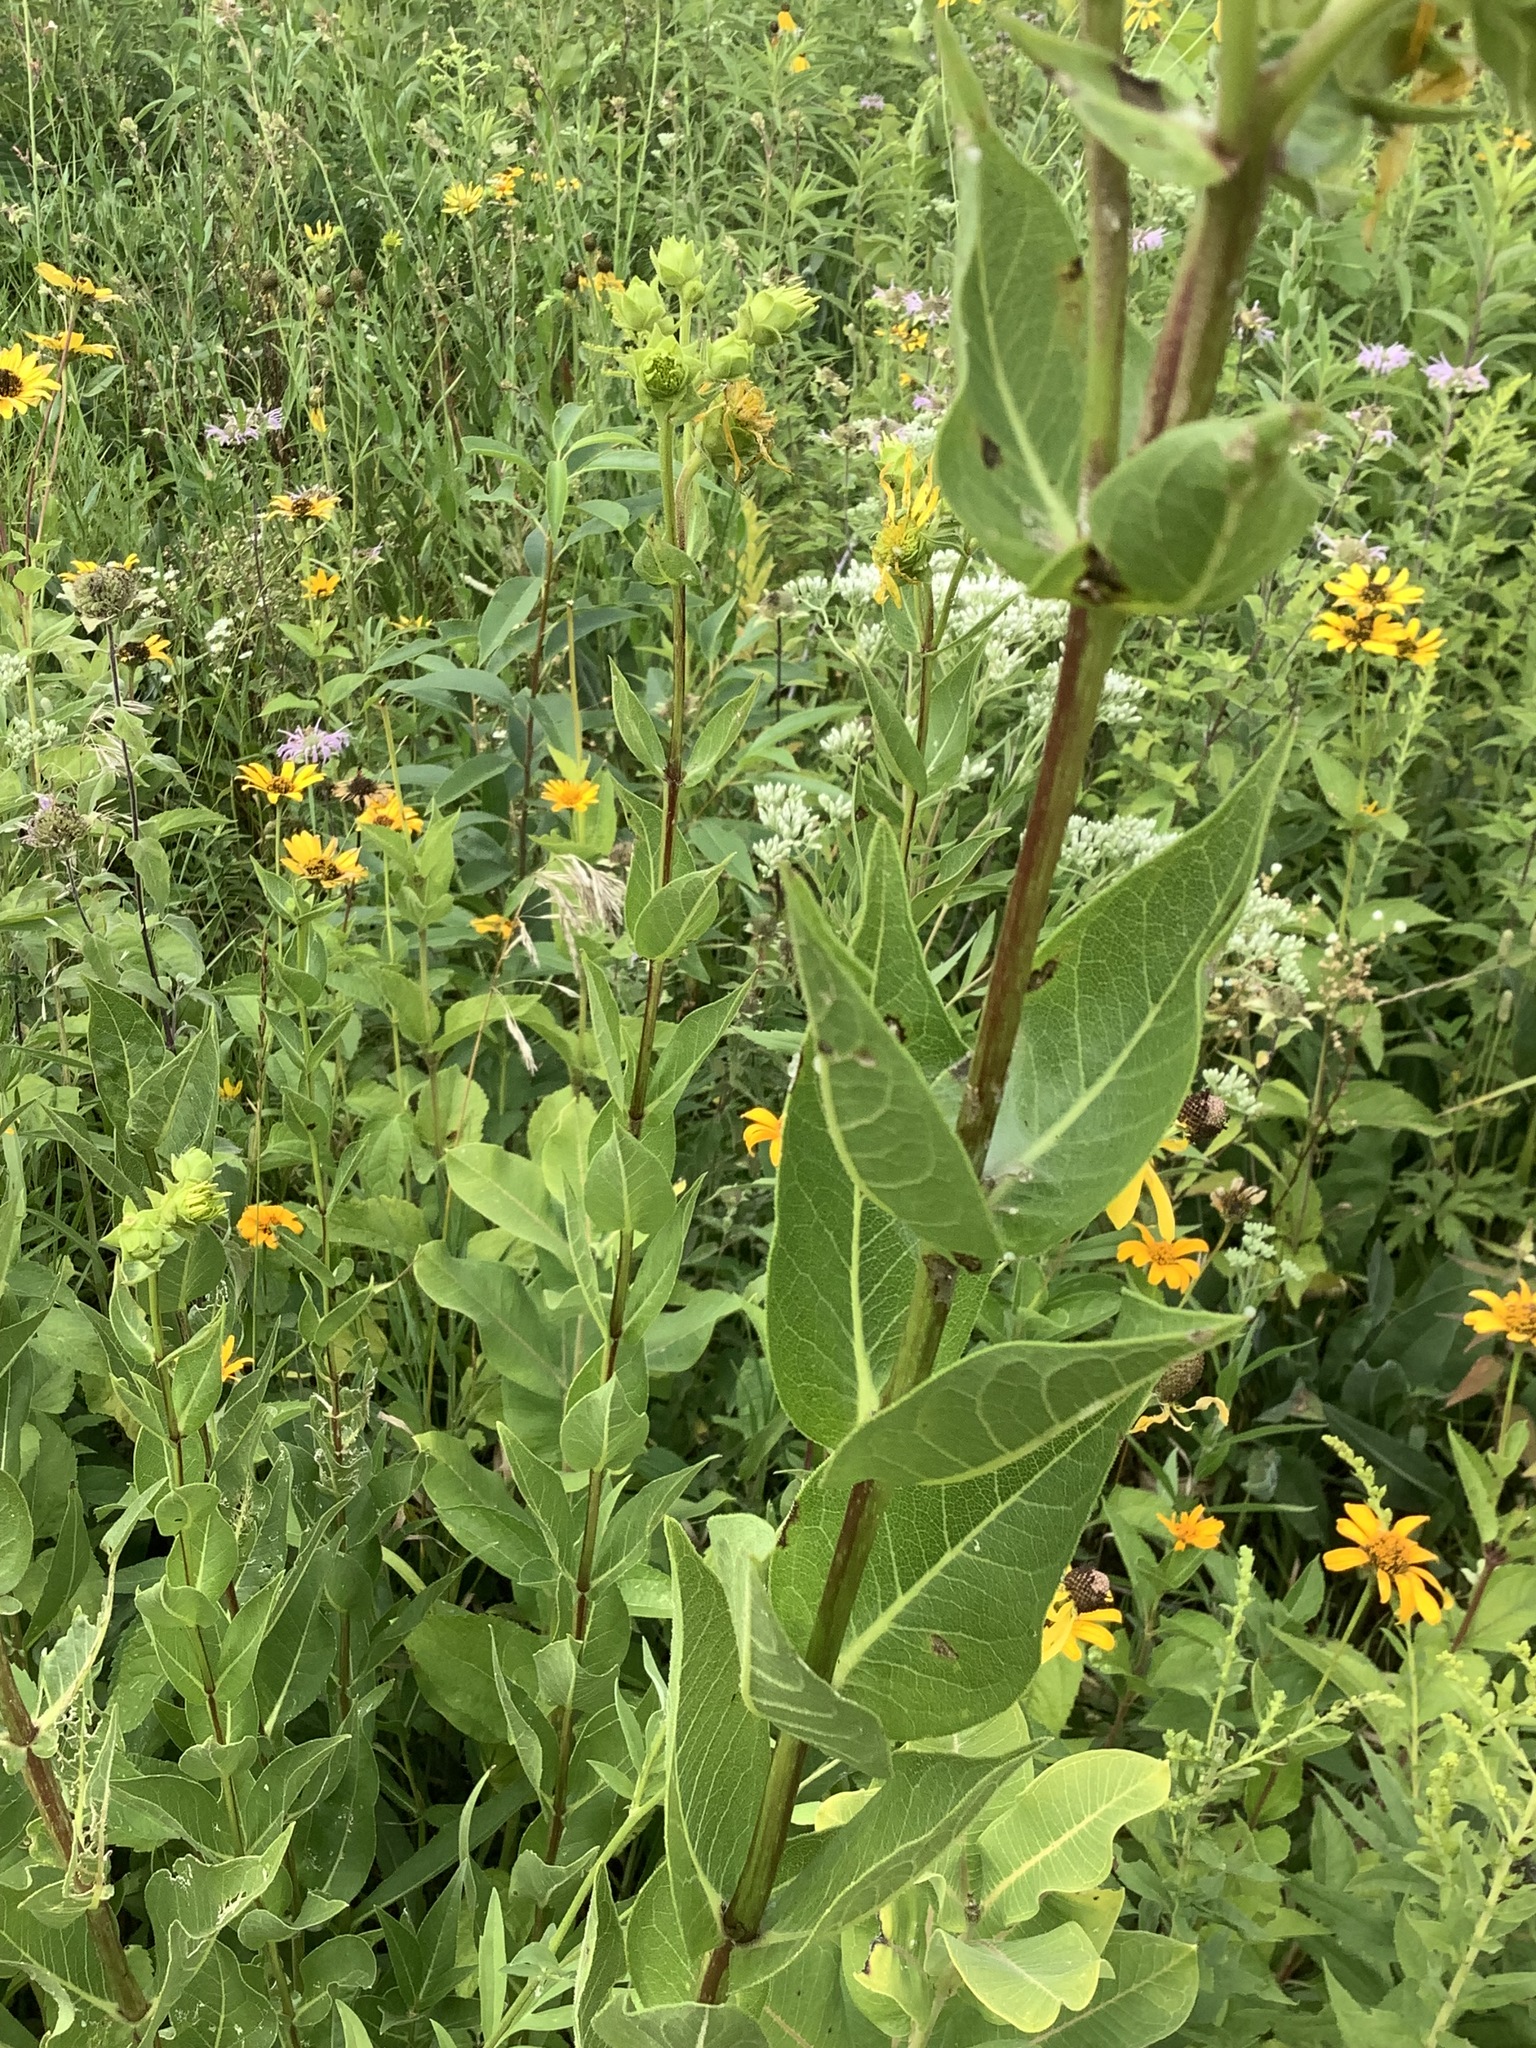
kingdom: Plantae
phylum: Tracheophyta
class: Magnoliopsida
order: Asterales
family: Asteraceae
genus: Silphium
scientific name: Silphium integrifolium
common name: Whole-leaf rosinweed
